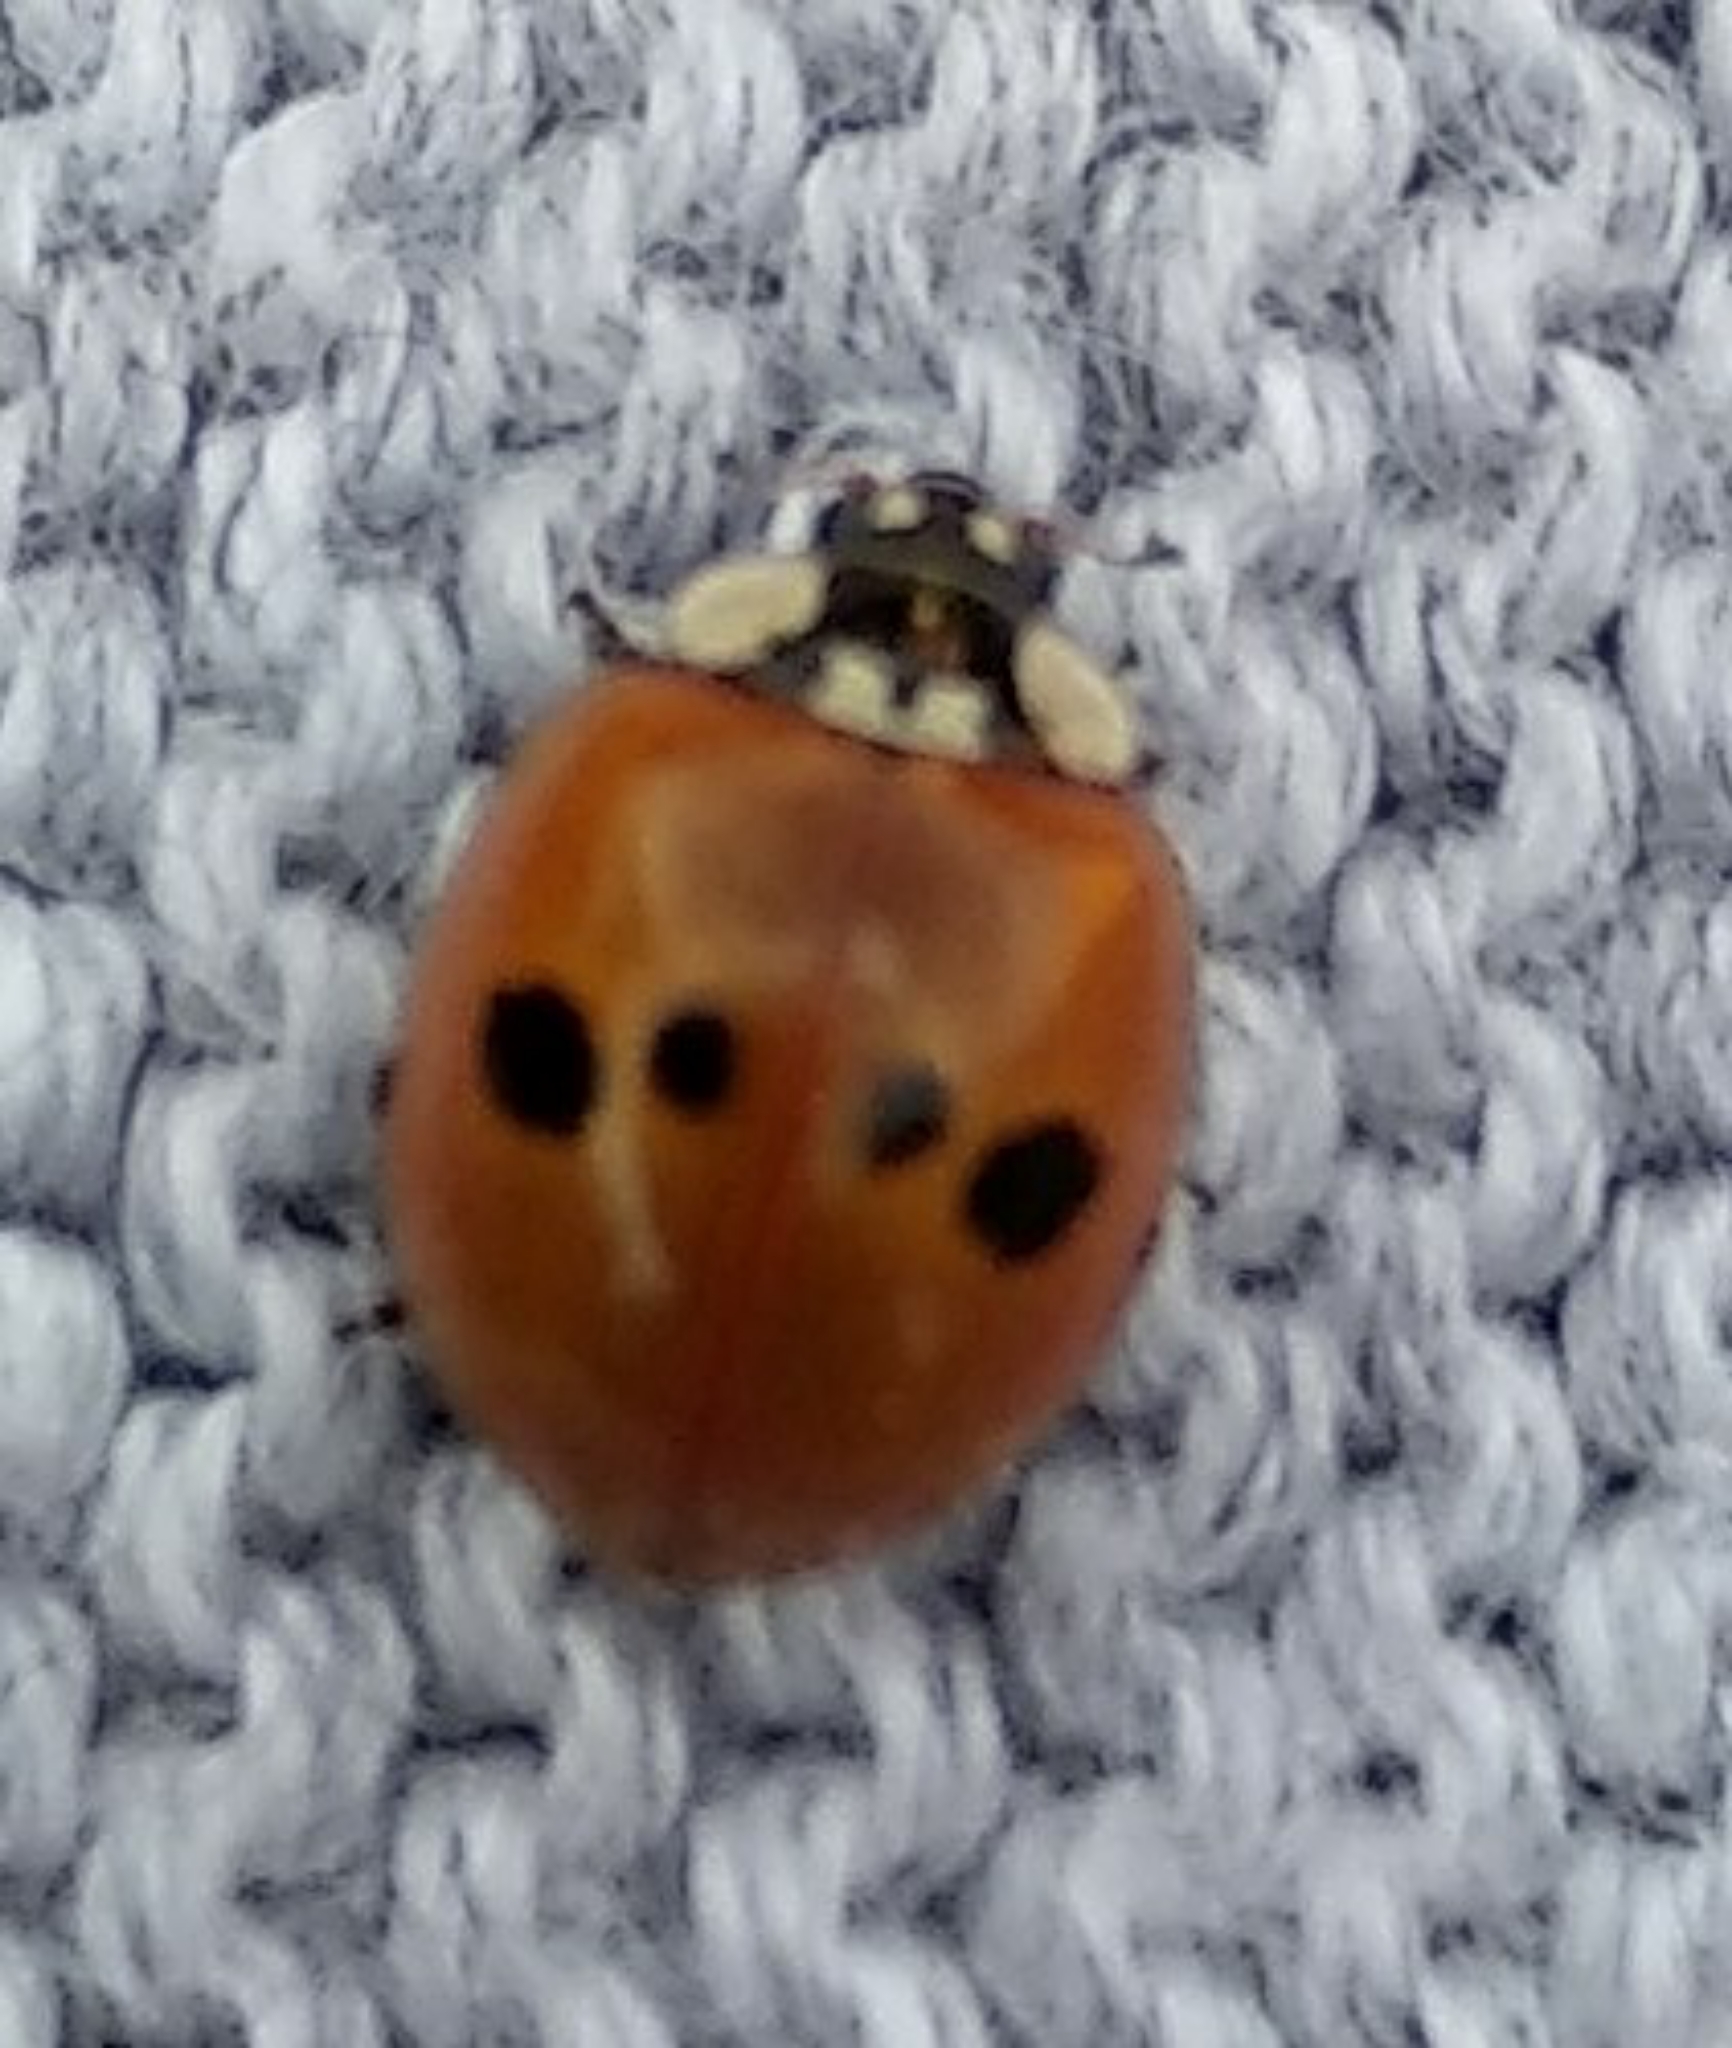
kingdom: Animalia
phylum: Arthropoda
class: Insecta
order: Coleoptera
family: Coccinellidae
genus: Harmonia
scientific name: Harmonia axyridis
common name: Harlequin ladybird
